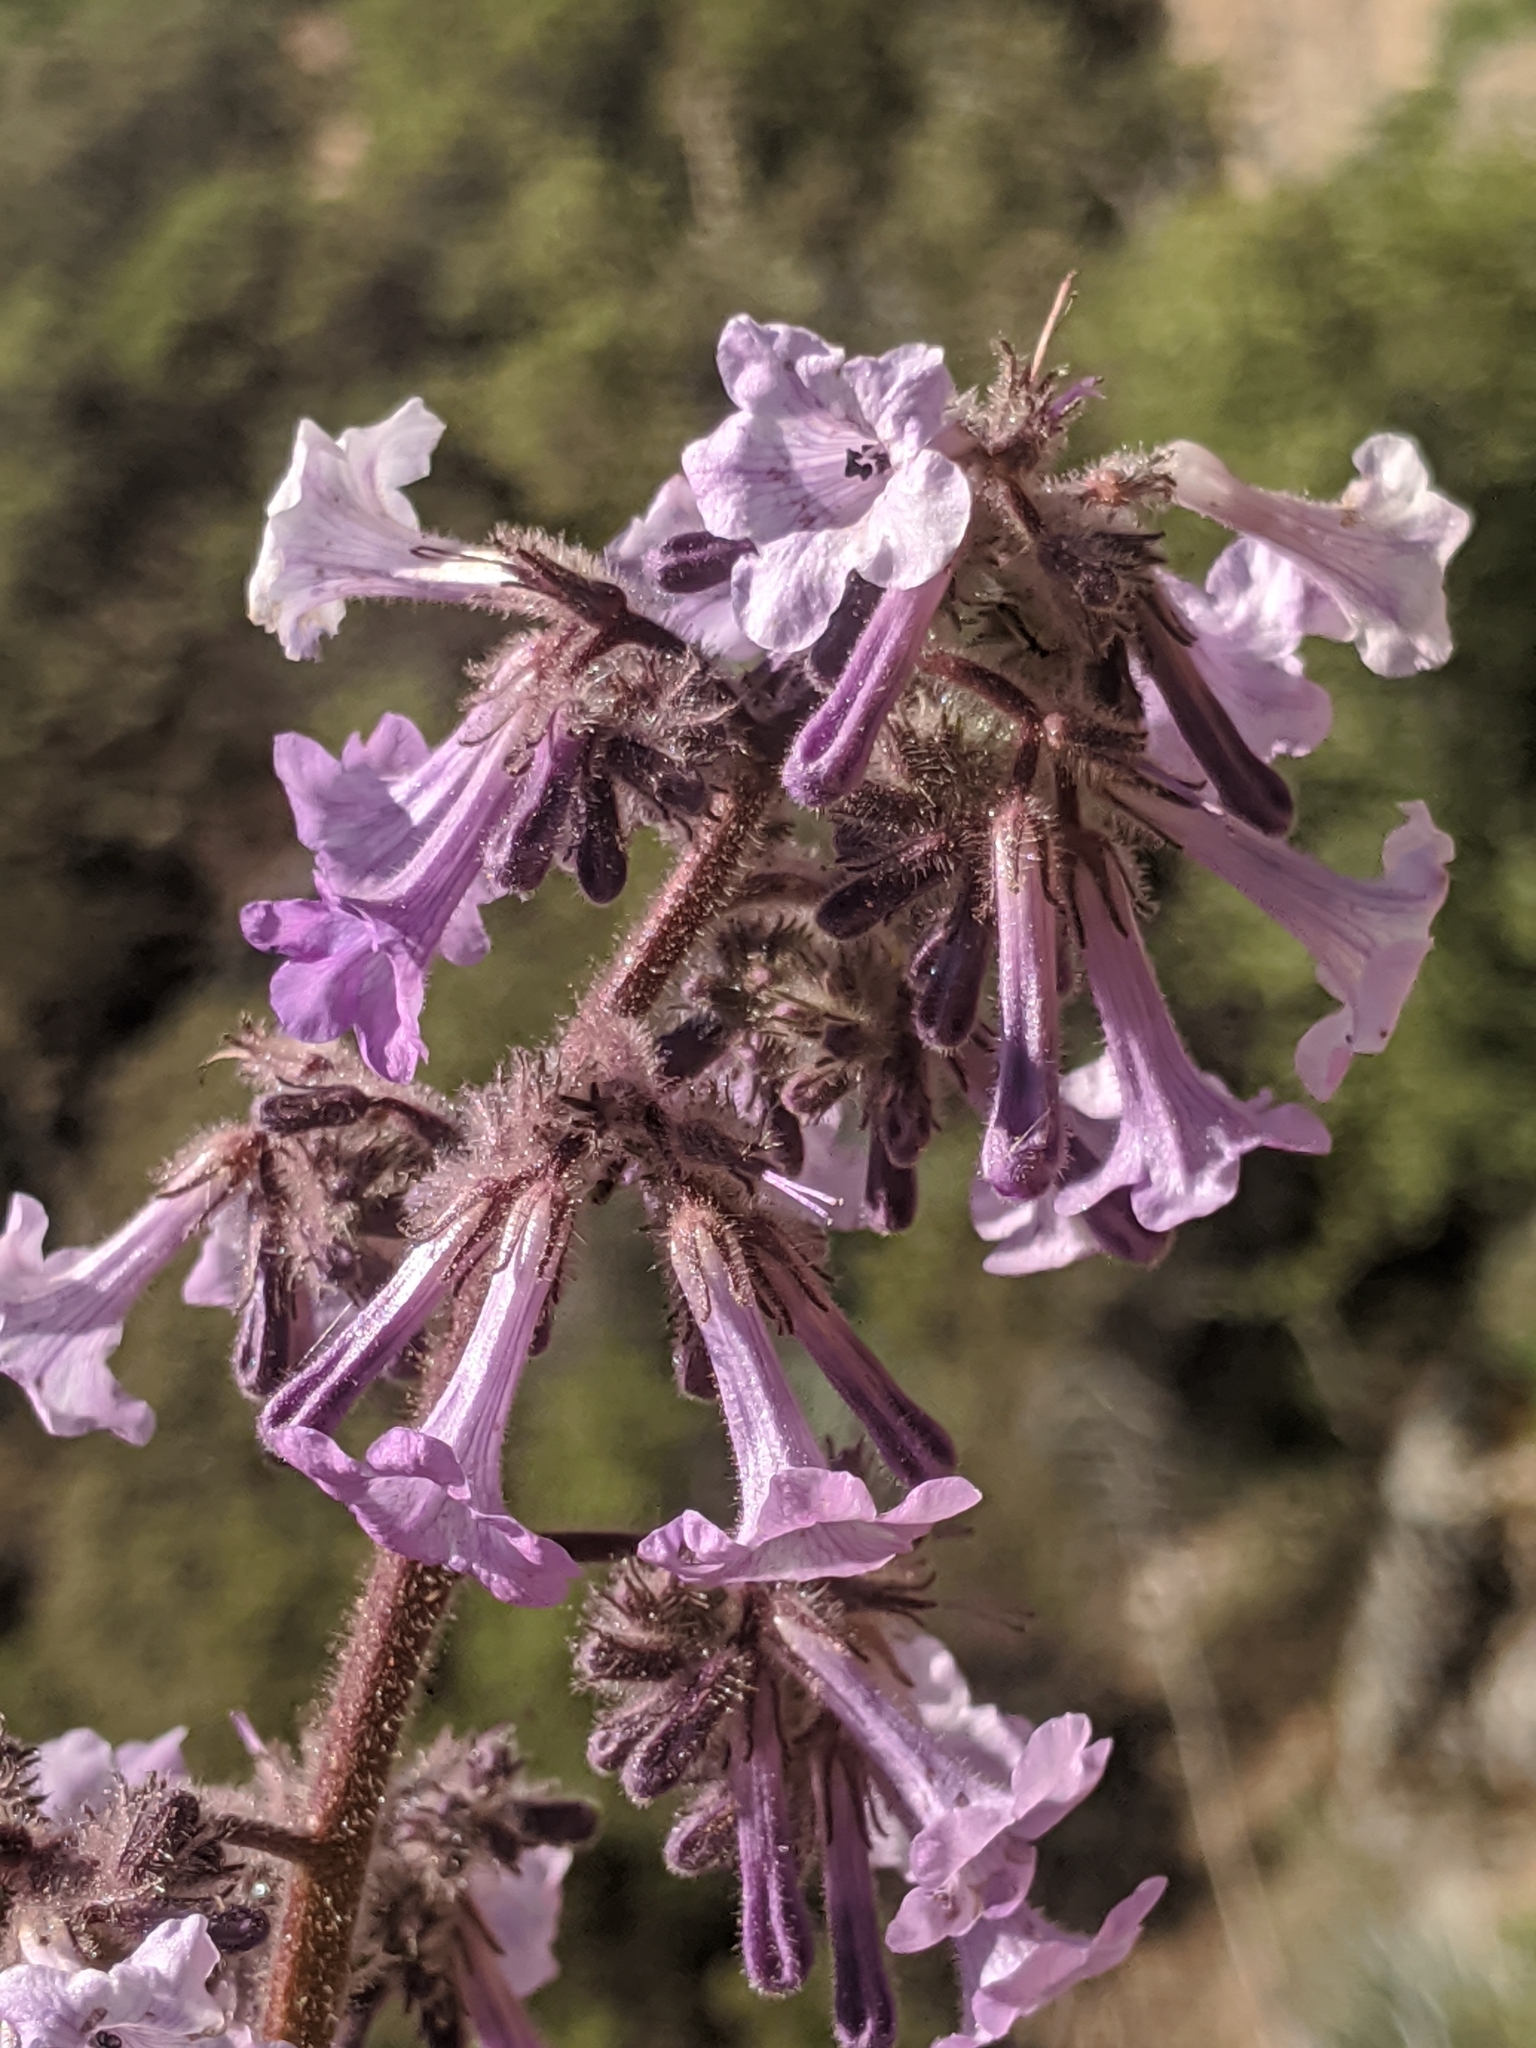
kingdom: Plantae
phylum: Tracheophyta
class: Magnoliopsida
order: Boraginales
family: Namaceae
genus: Turricula
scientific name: Turricula parryi
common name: Poodle-dog-bush
